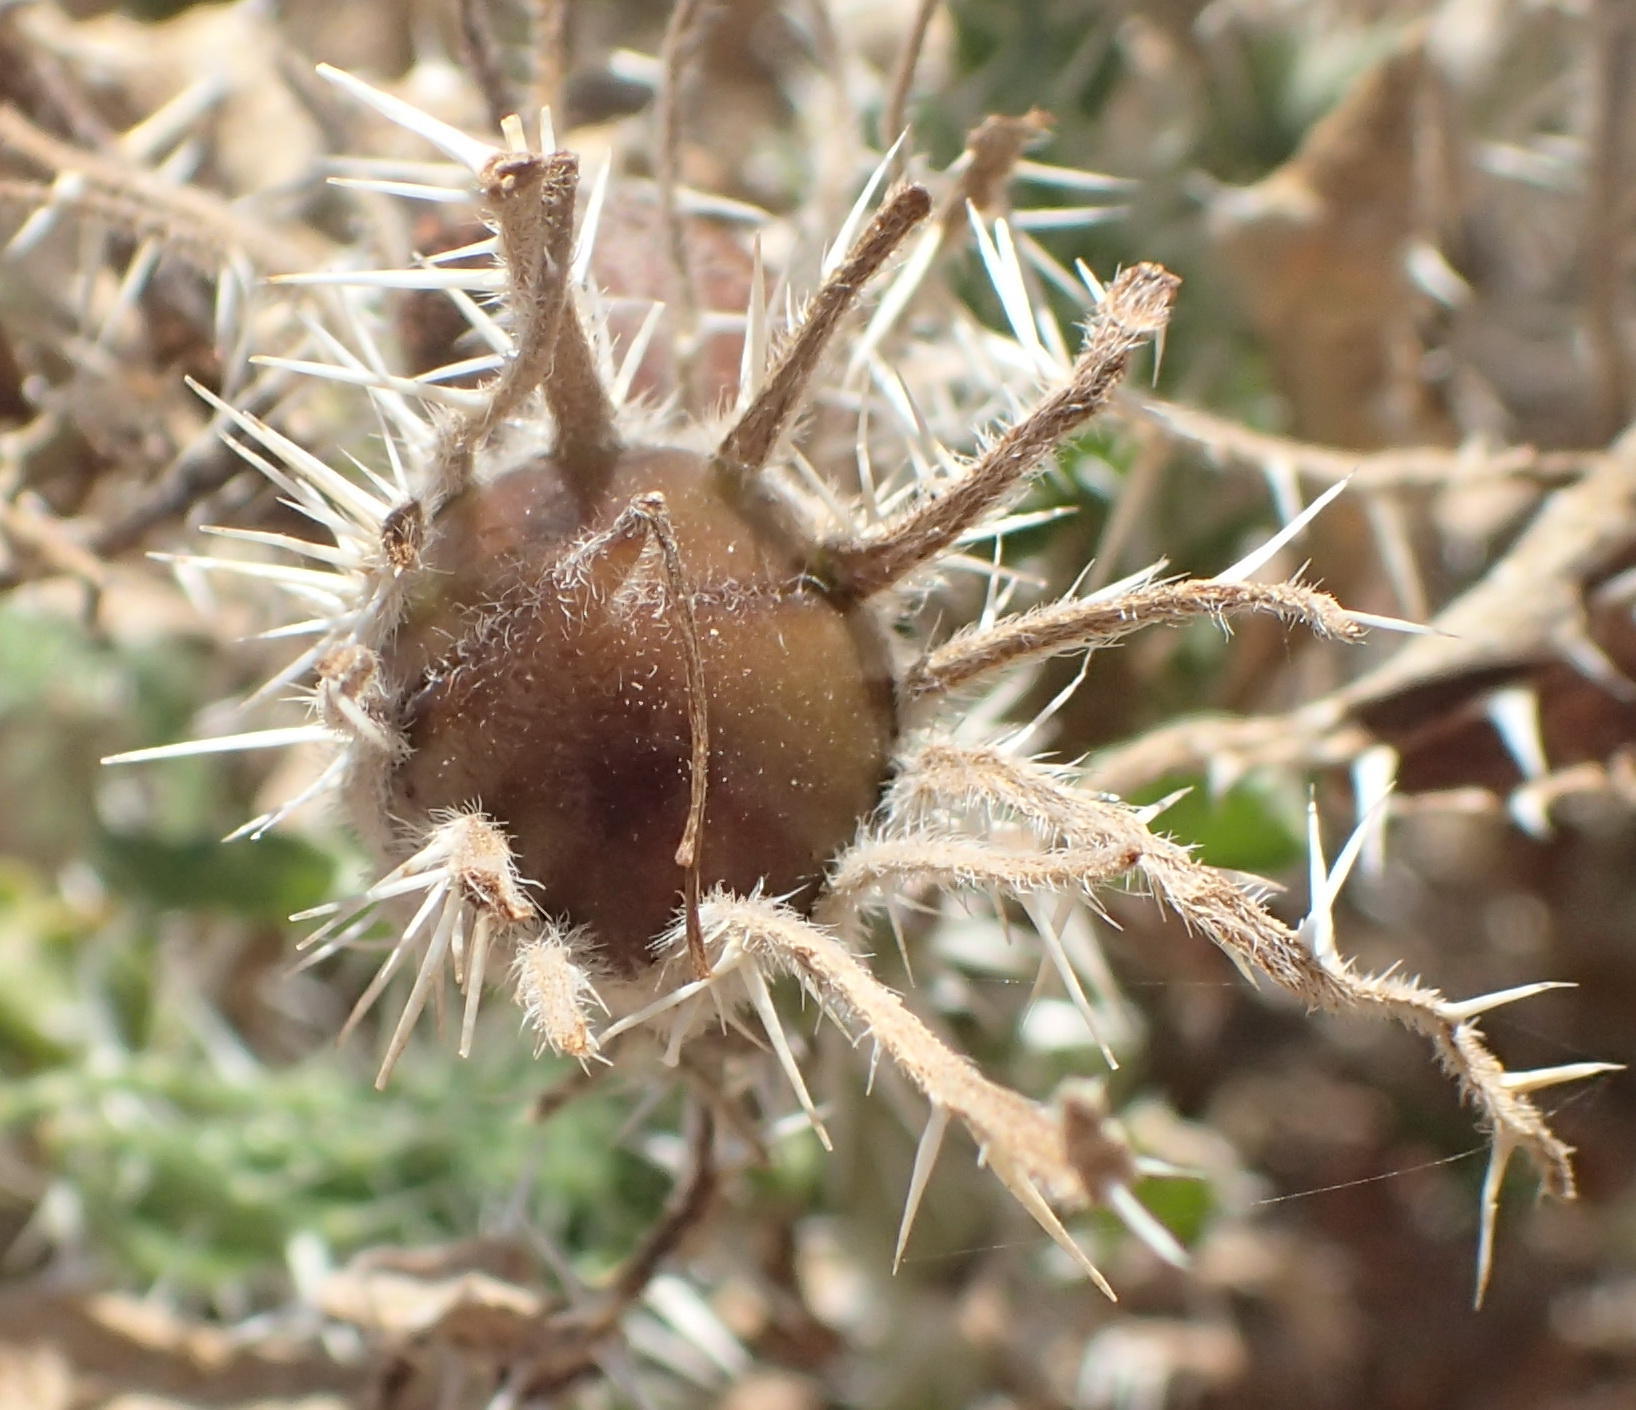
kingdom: Plantae
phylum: Tracheophyta
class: Magnoliopsida
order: Boraginales
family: Boraginaceae
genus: Codon
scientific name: Codon royenii
